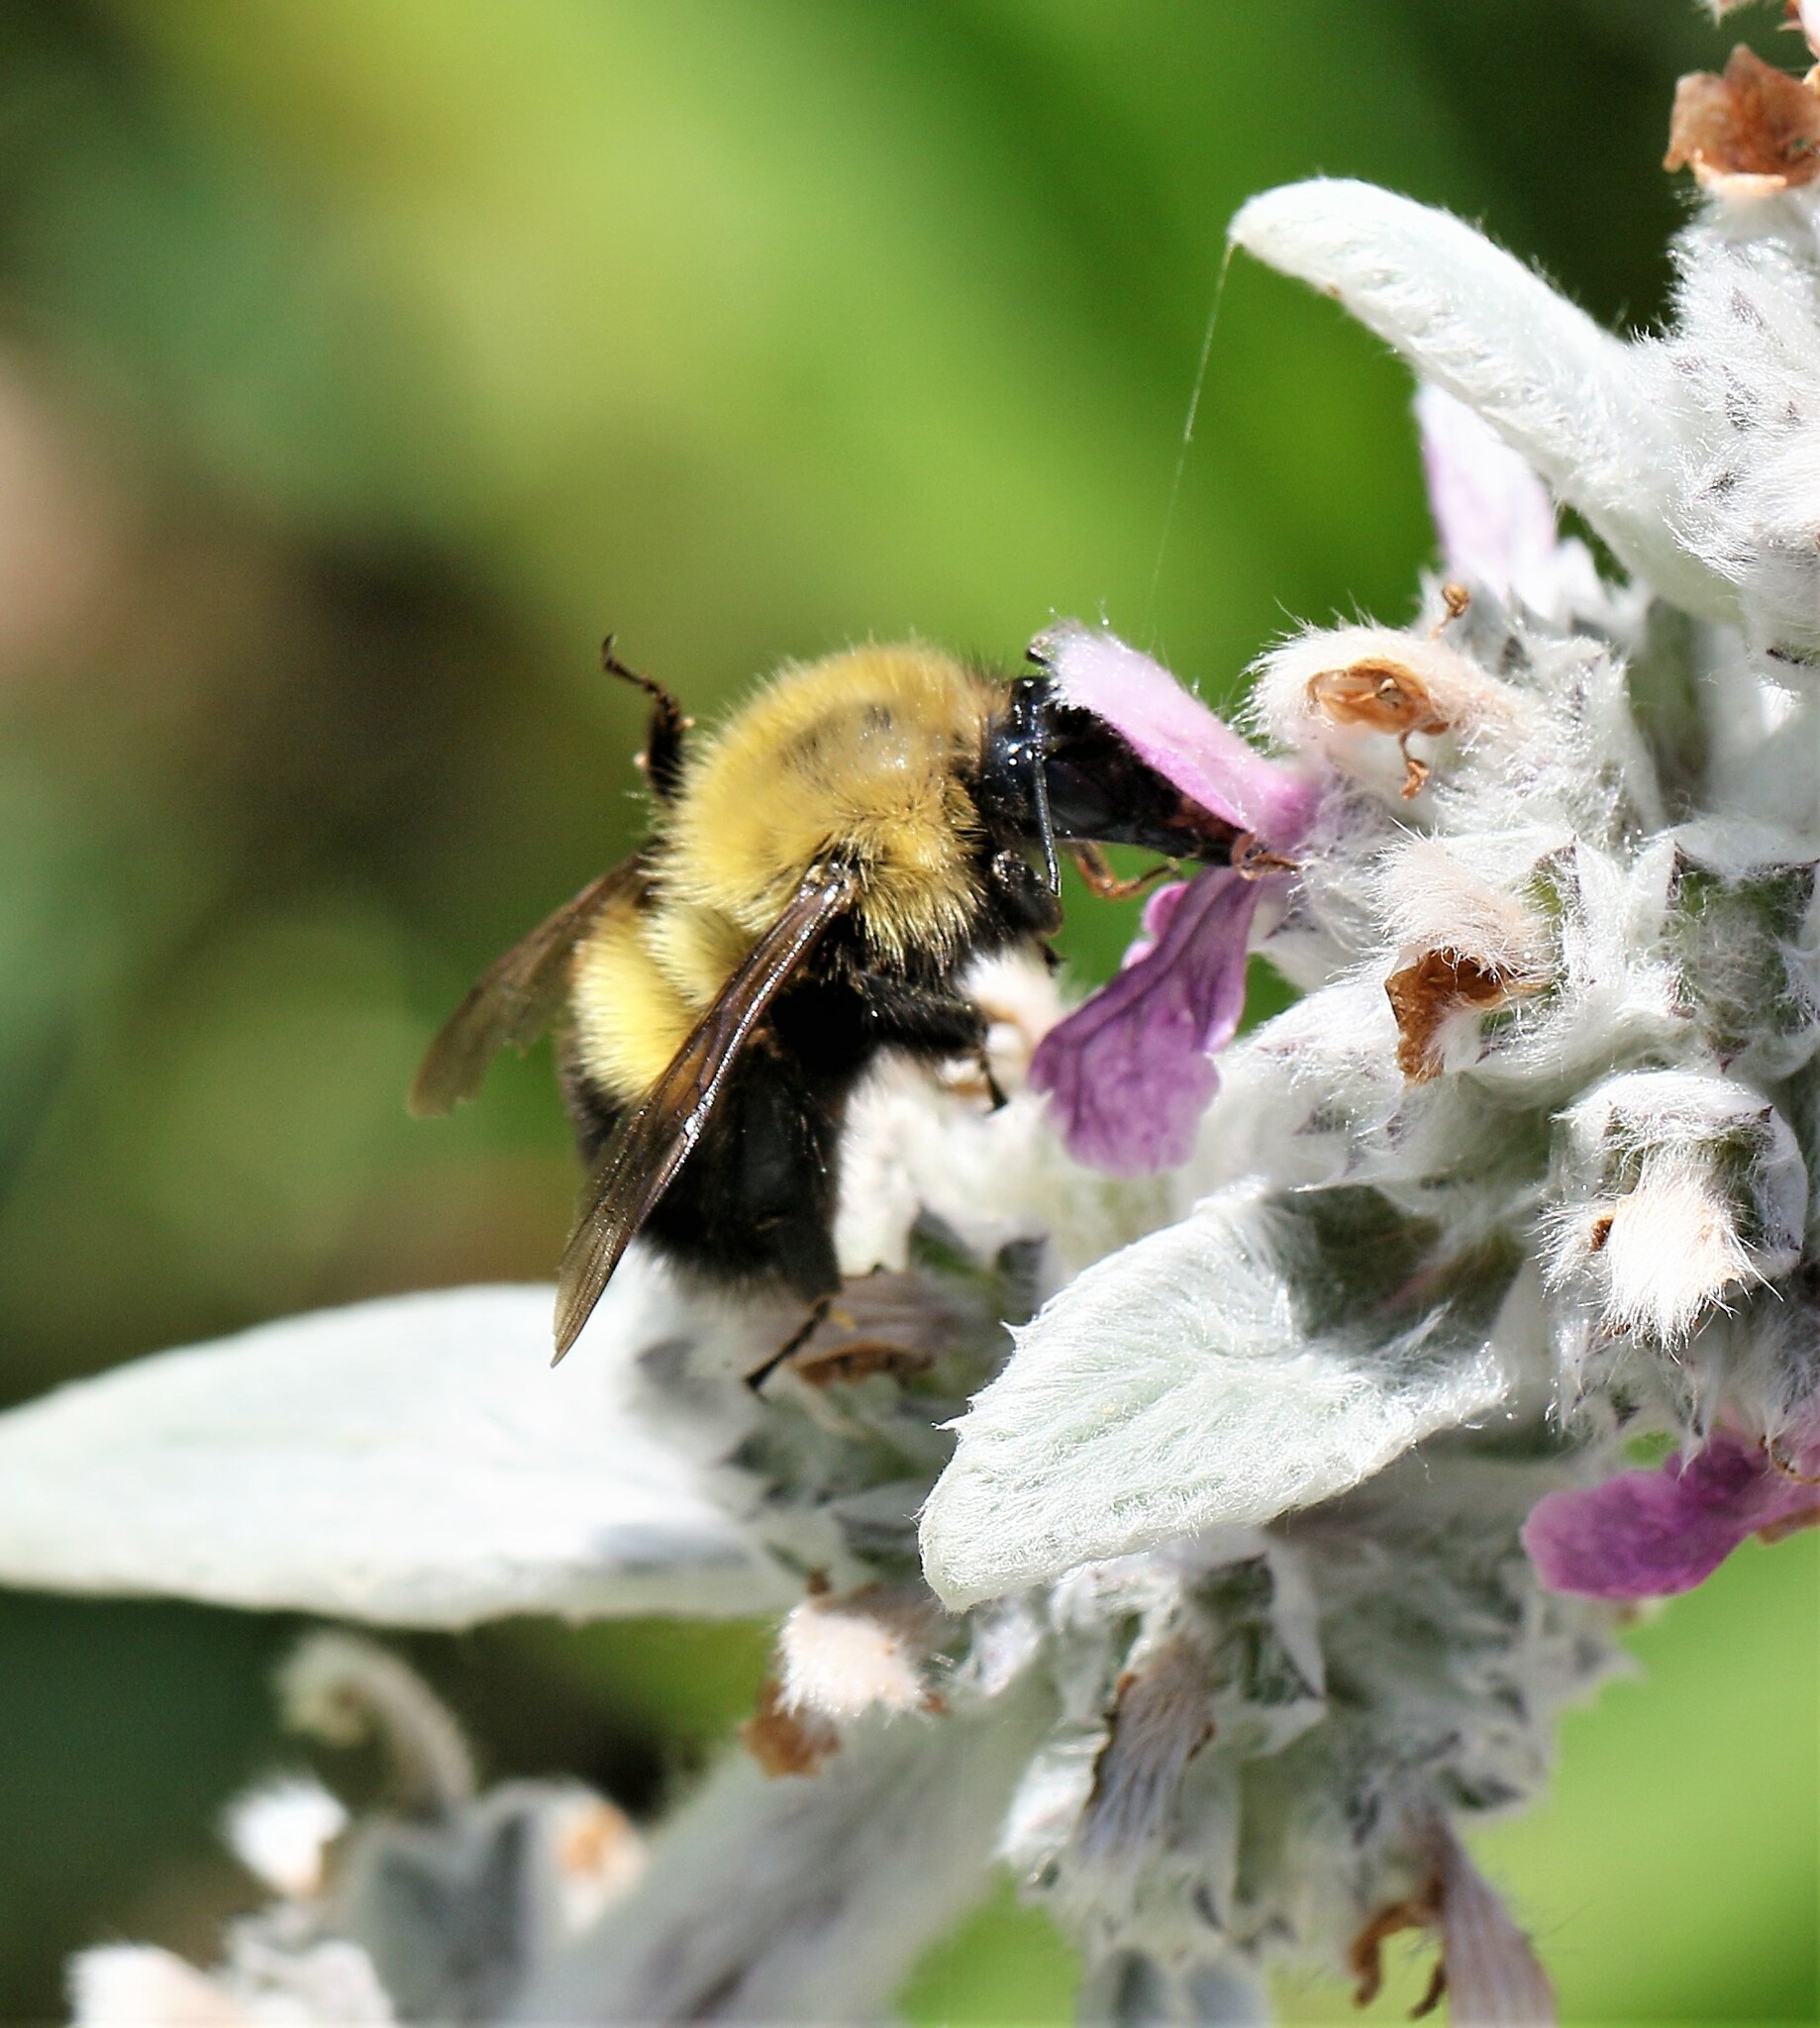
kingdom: Animalia
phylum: Arthropoda
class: Insecta
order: Hymenoptera
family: Apidae
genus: Bombus
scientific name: Bombus perplexus
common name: Confusing bumble bee
